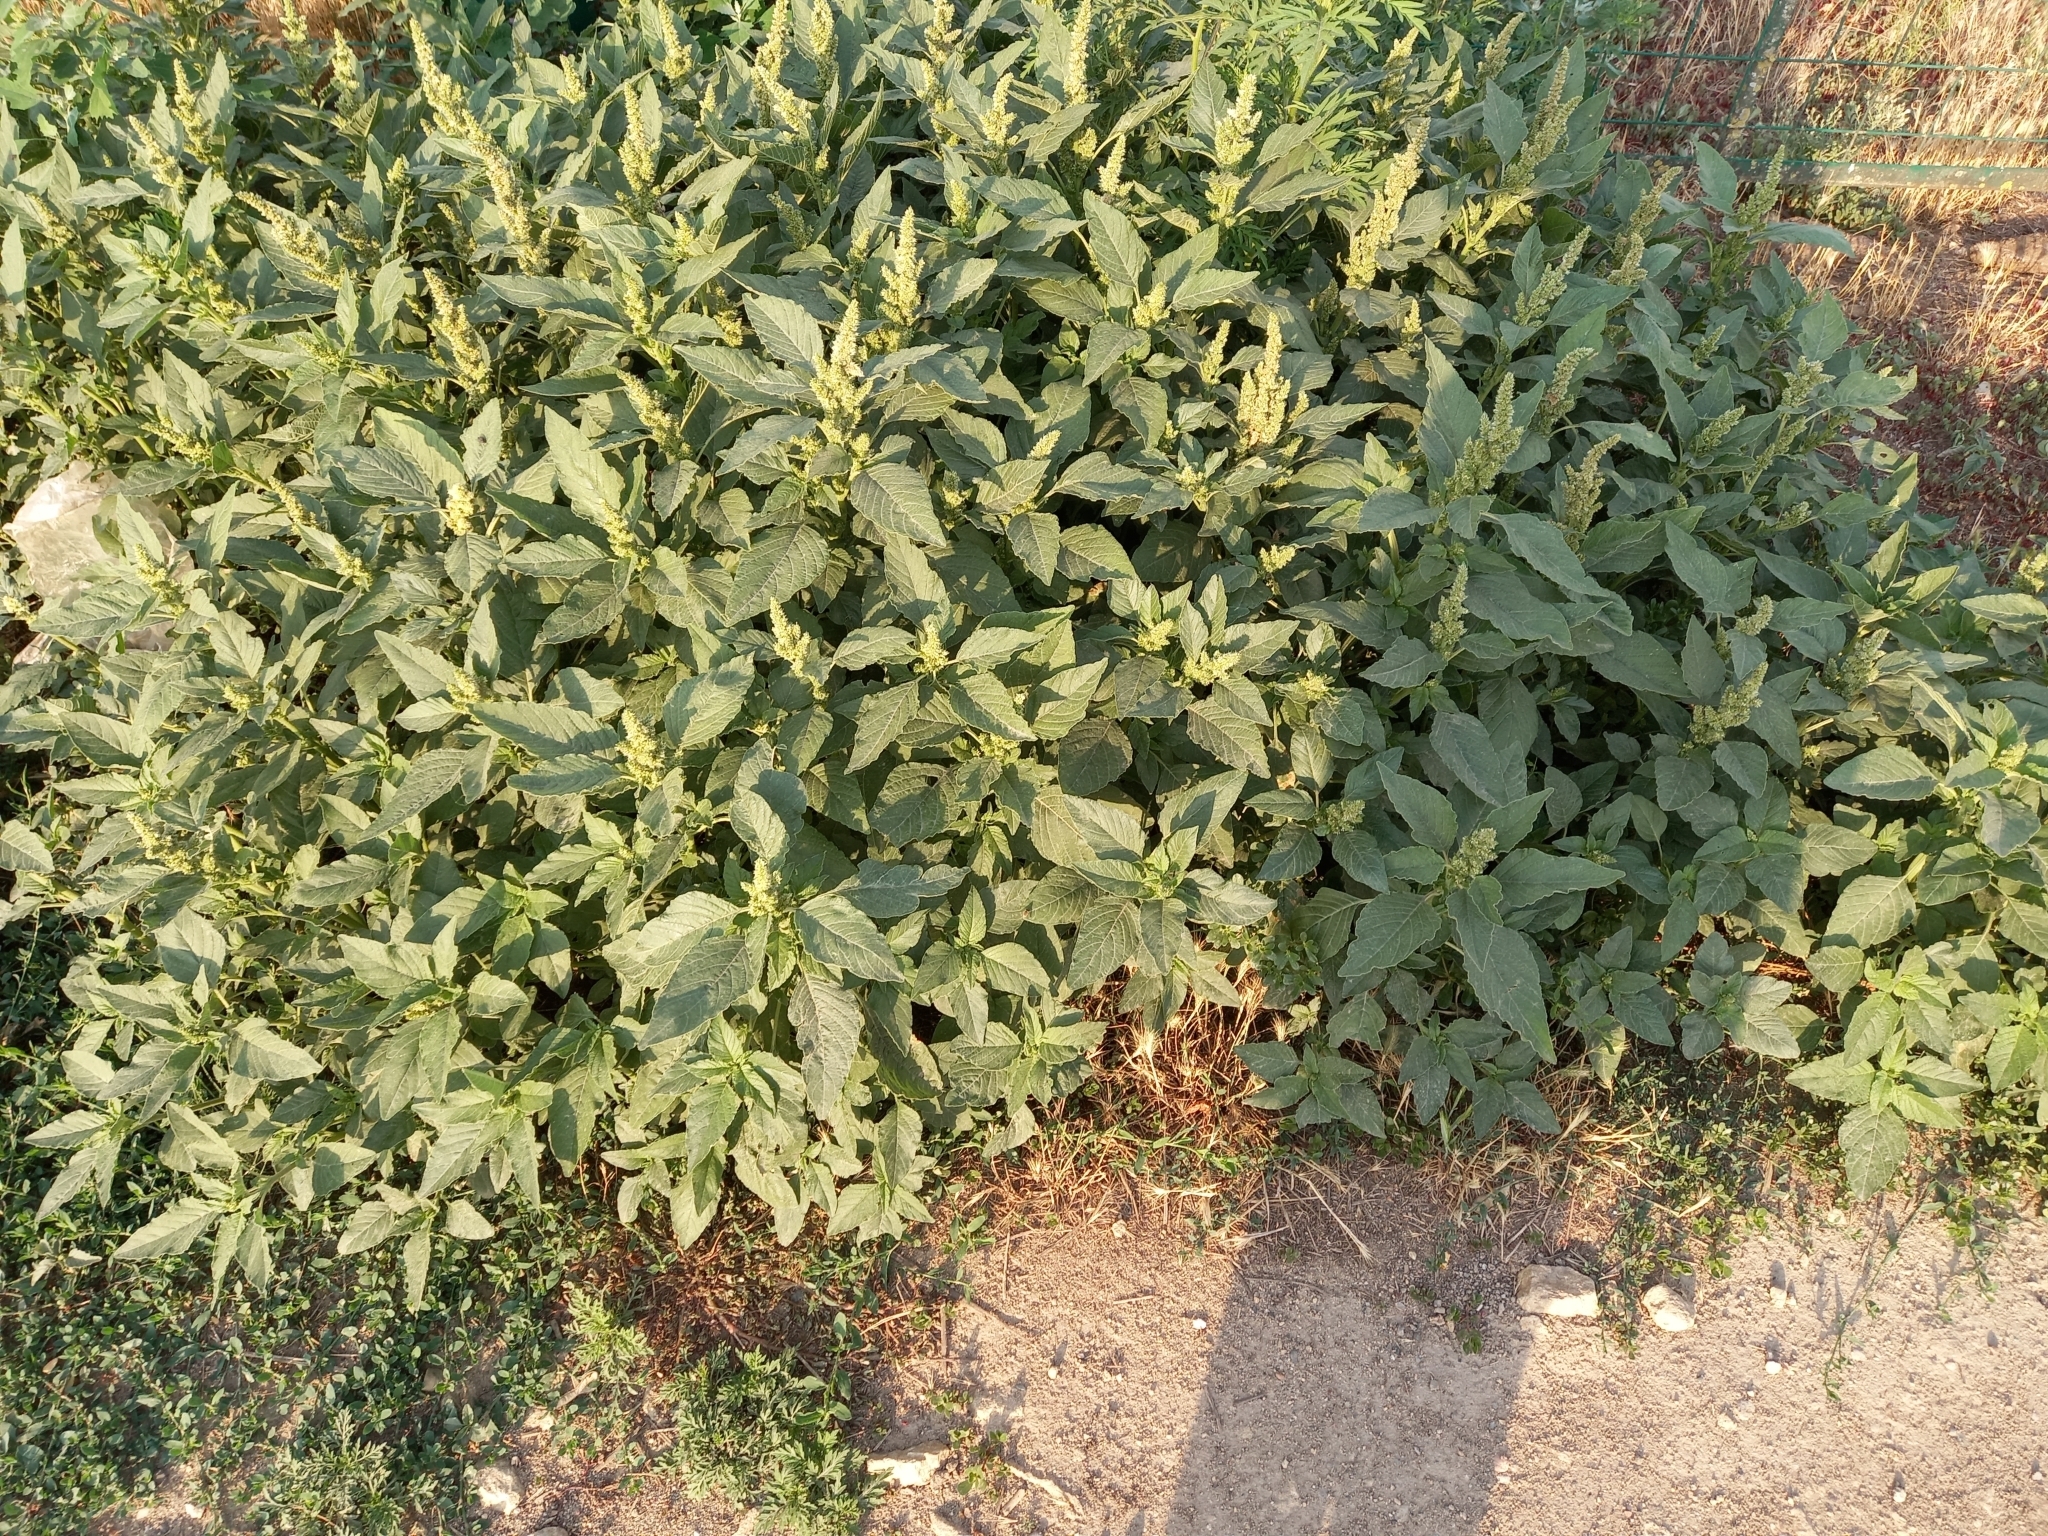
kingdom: Plantae
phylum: Tracheophyta
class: Magnoliopsida
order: Caryophyllales
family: Amaranthaceae
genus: Amaranthus
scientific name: Amaranthus retroflexus
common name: Redroot amaranth
